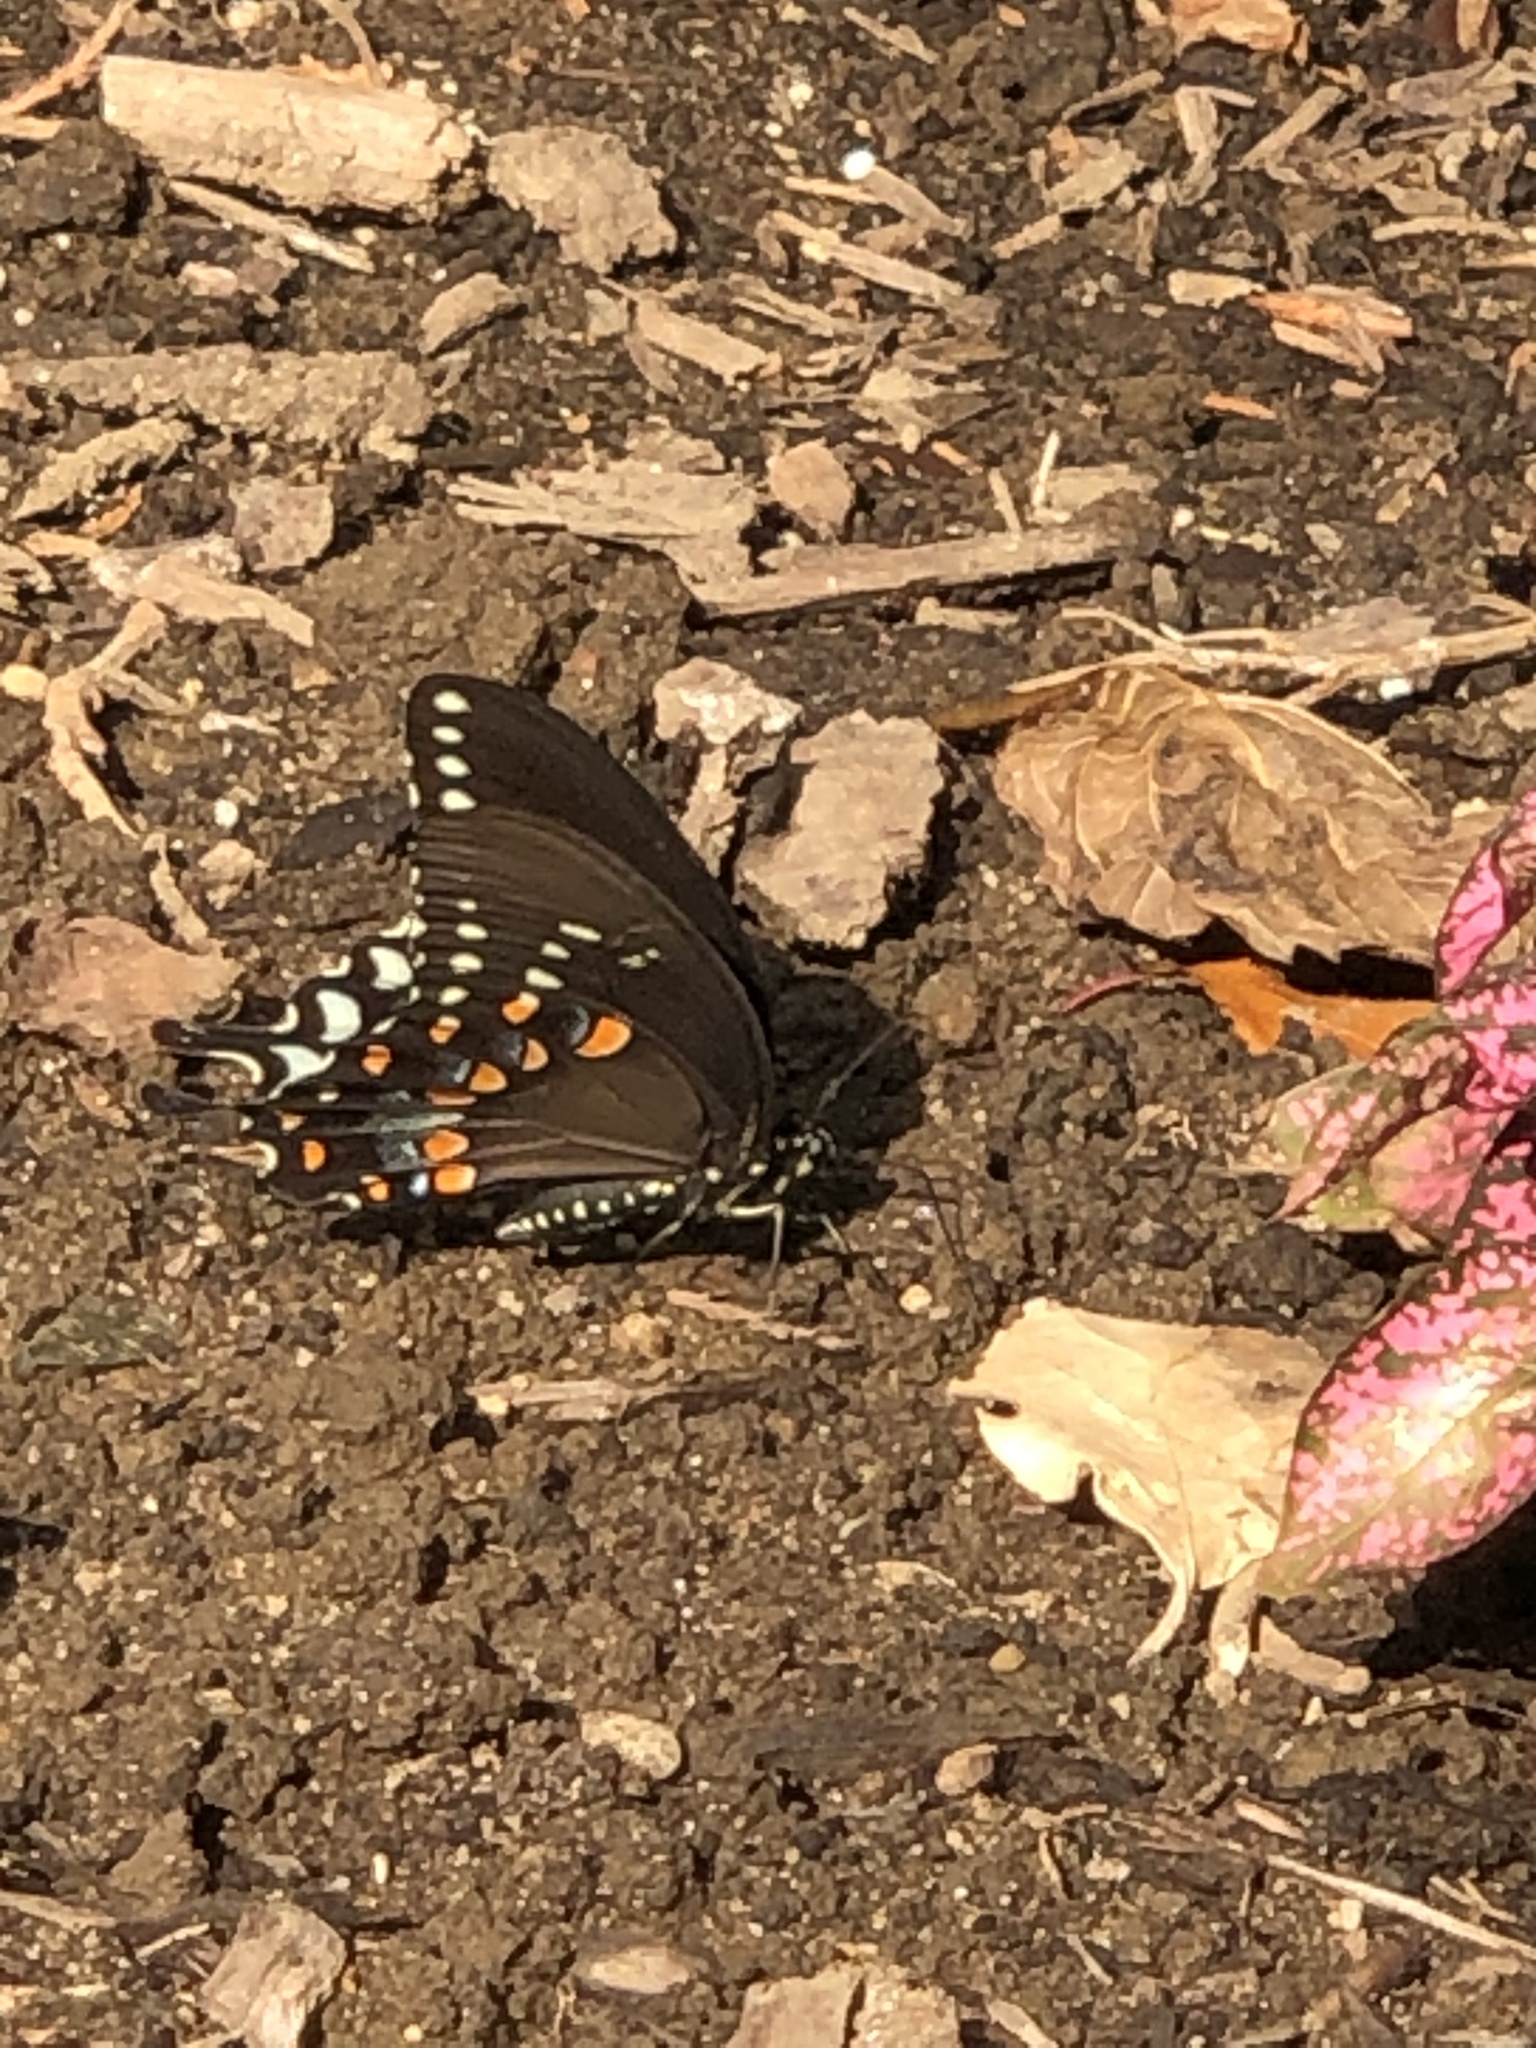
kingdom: Animalia
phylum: Arthropoda
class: Insecta
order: Lepidoptera
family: Papilionidae
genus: Papilio
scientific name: Papilio troilus
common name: Spicebush swallowtail
